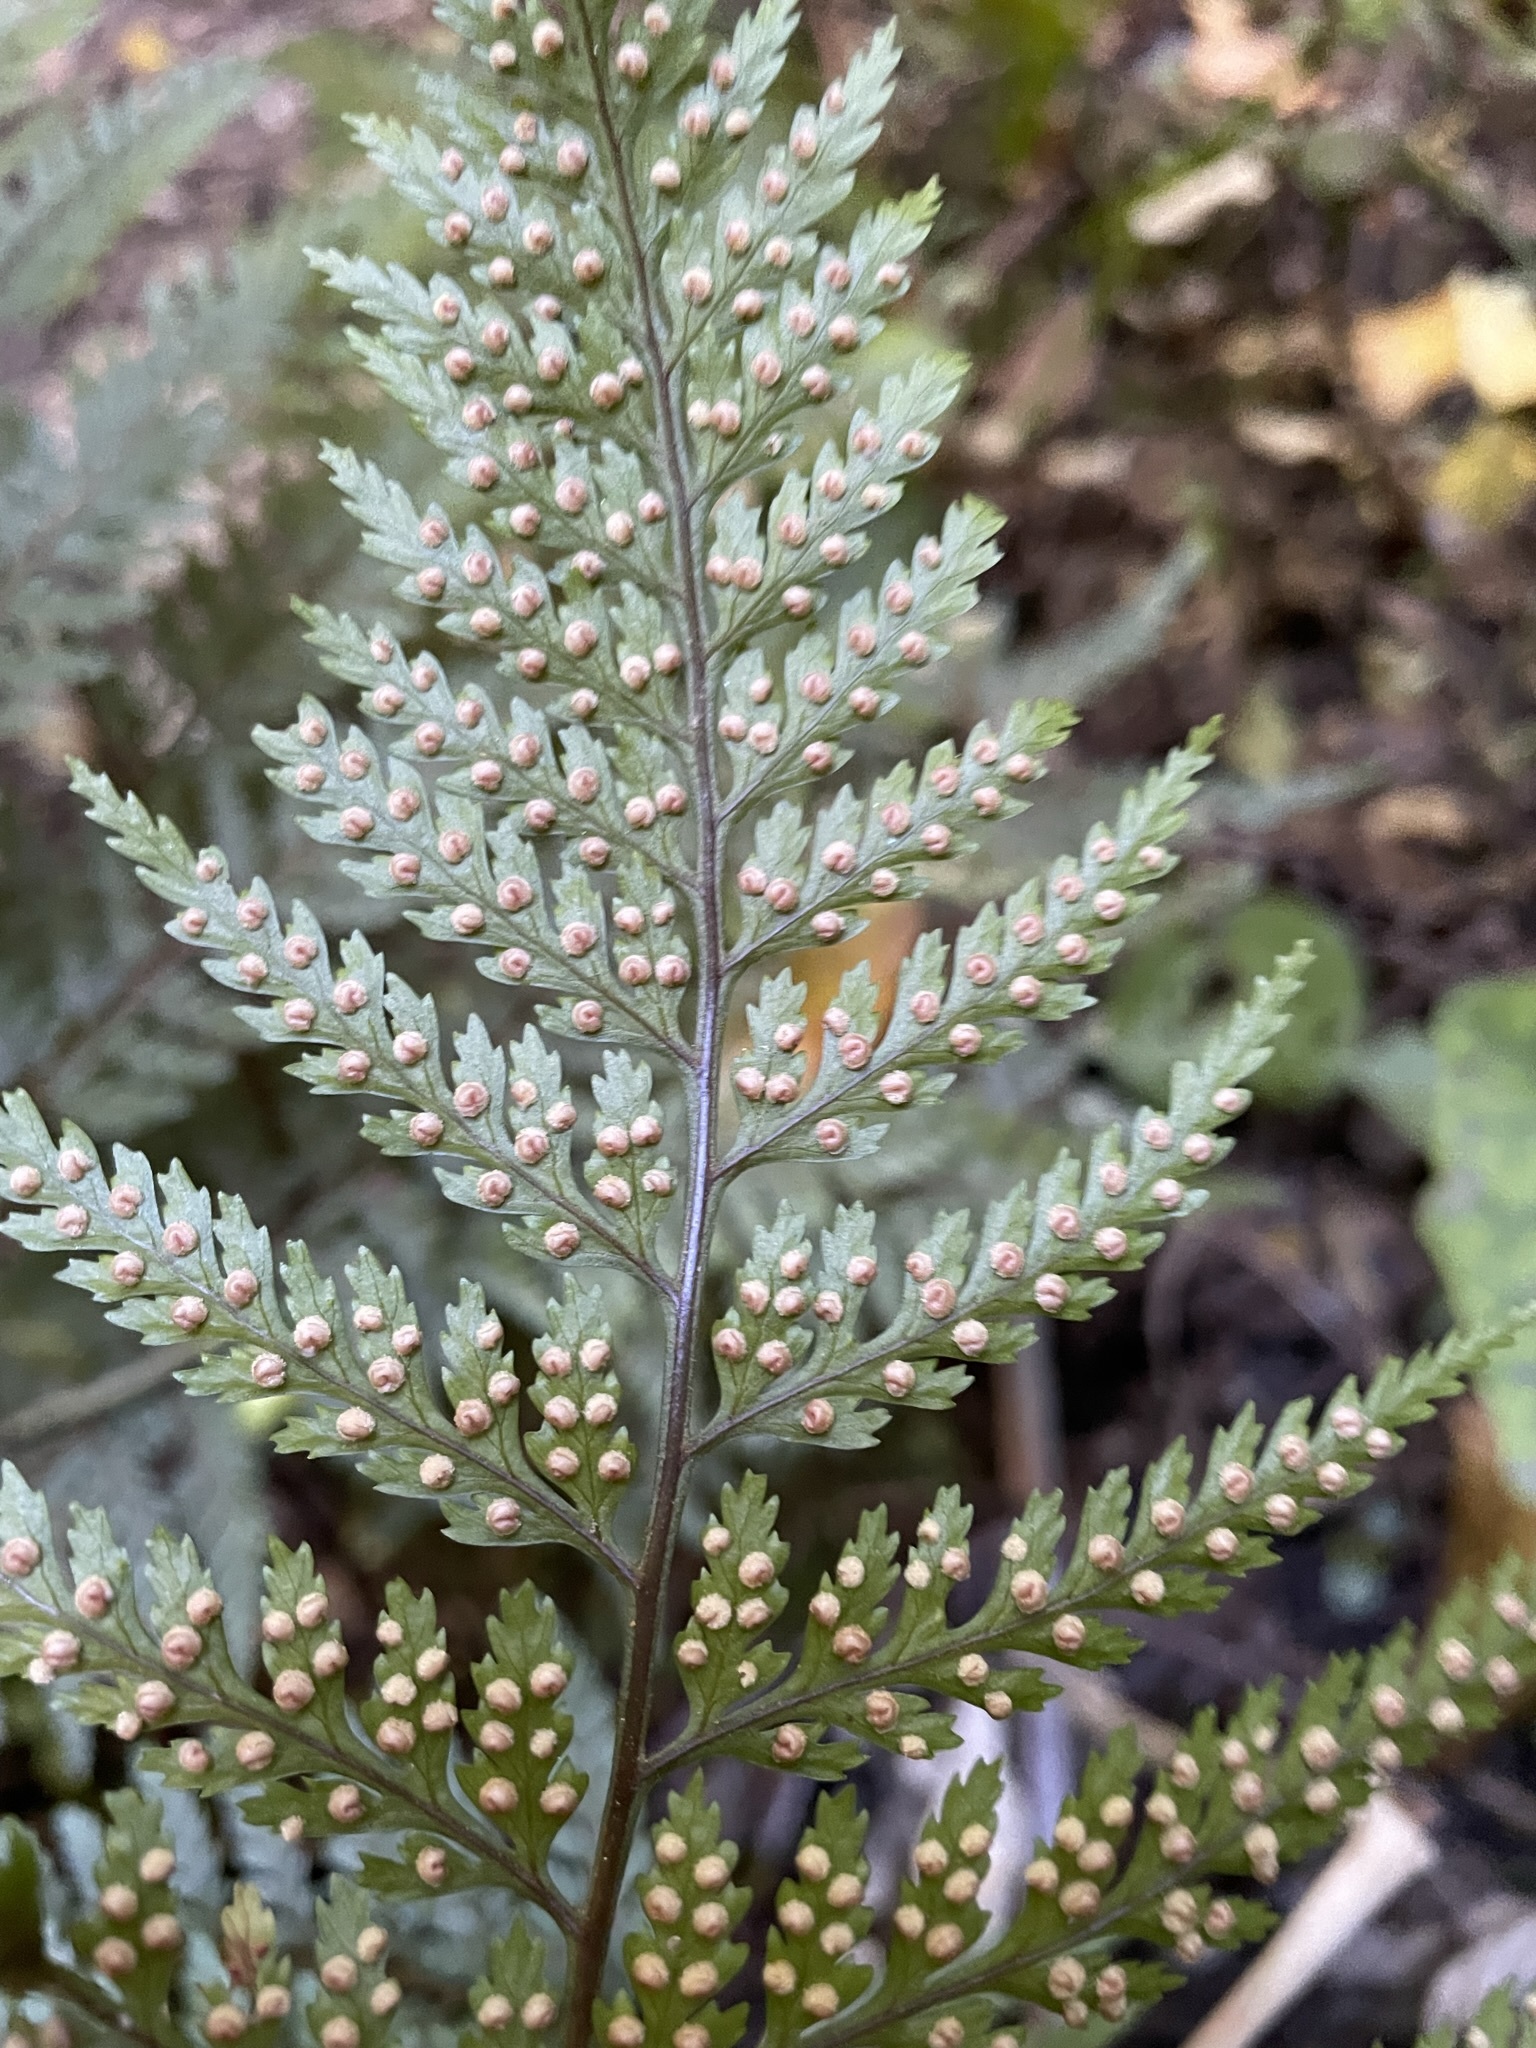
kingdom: Plantae
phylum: Tracheophyta
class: Polypodiopsida
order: Polypodiales
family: Dryopteridaceae
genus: Parapolystichum
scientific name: Parapolystichum glabellum
